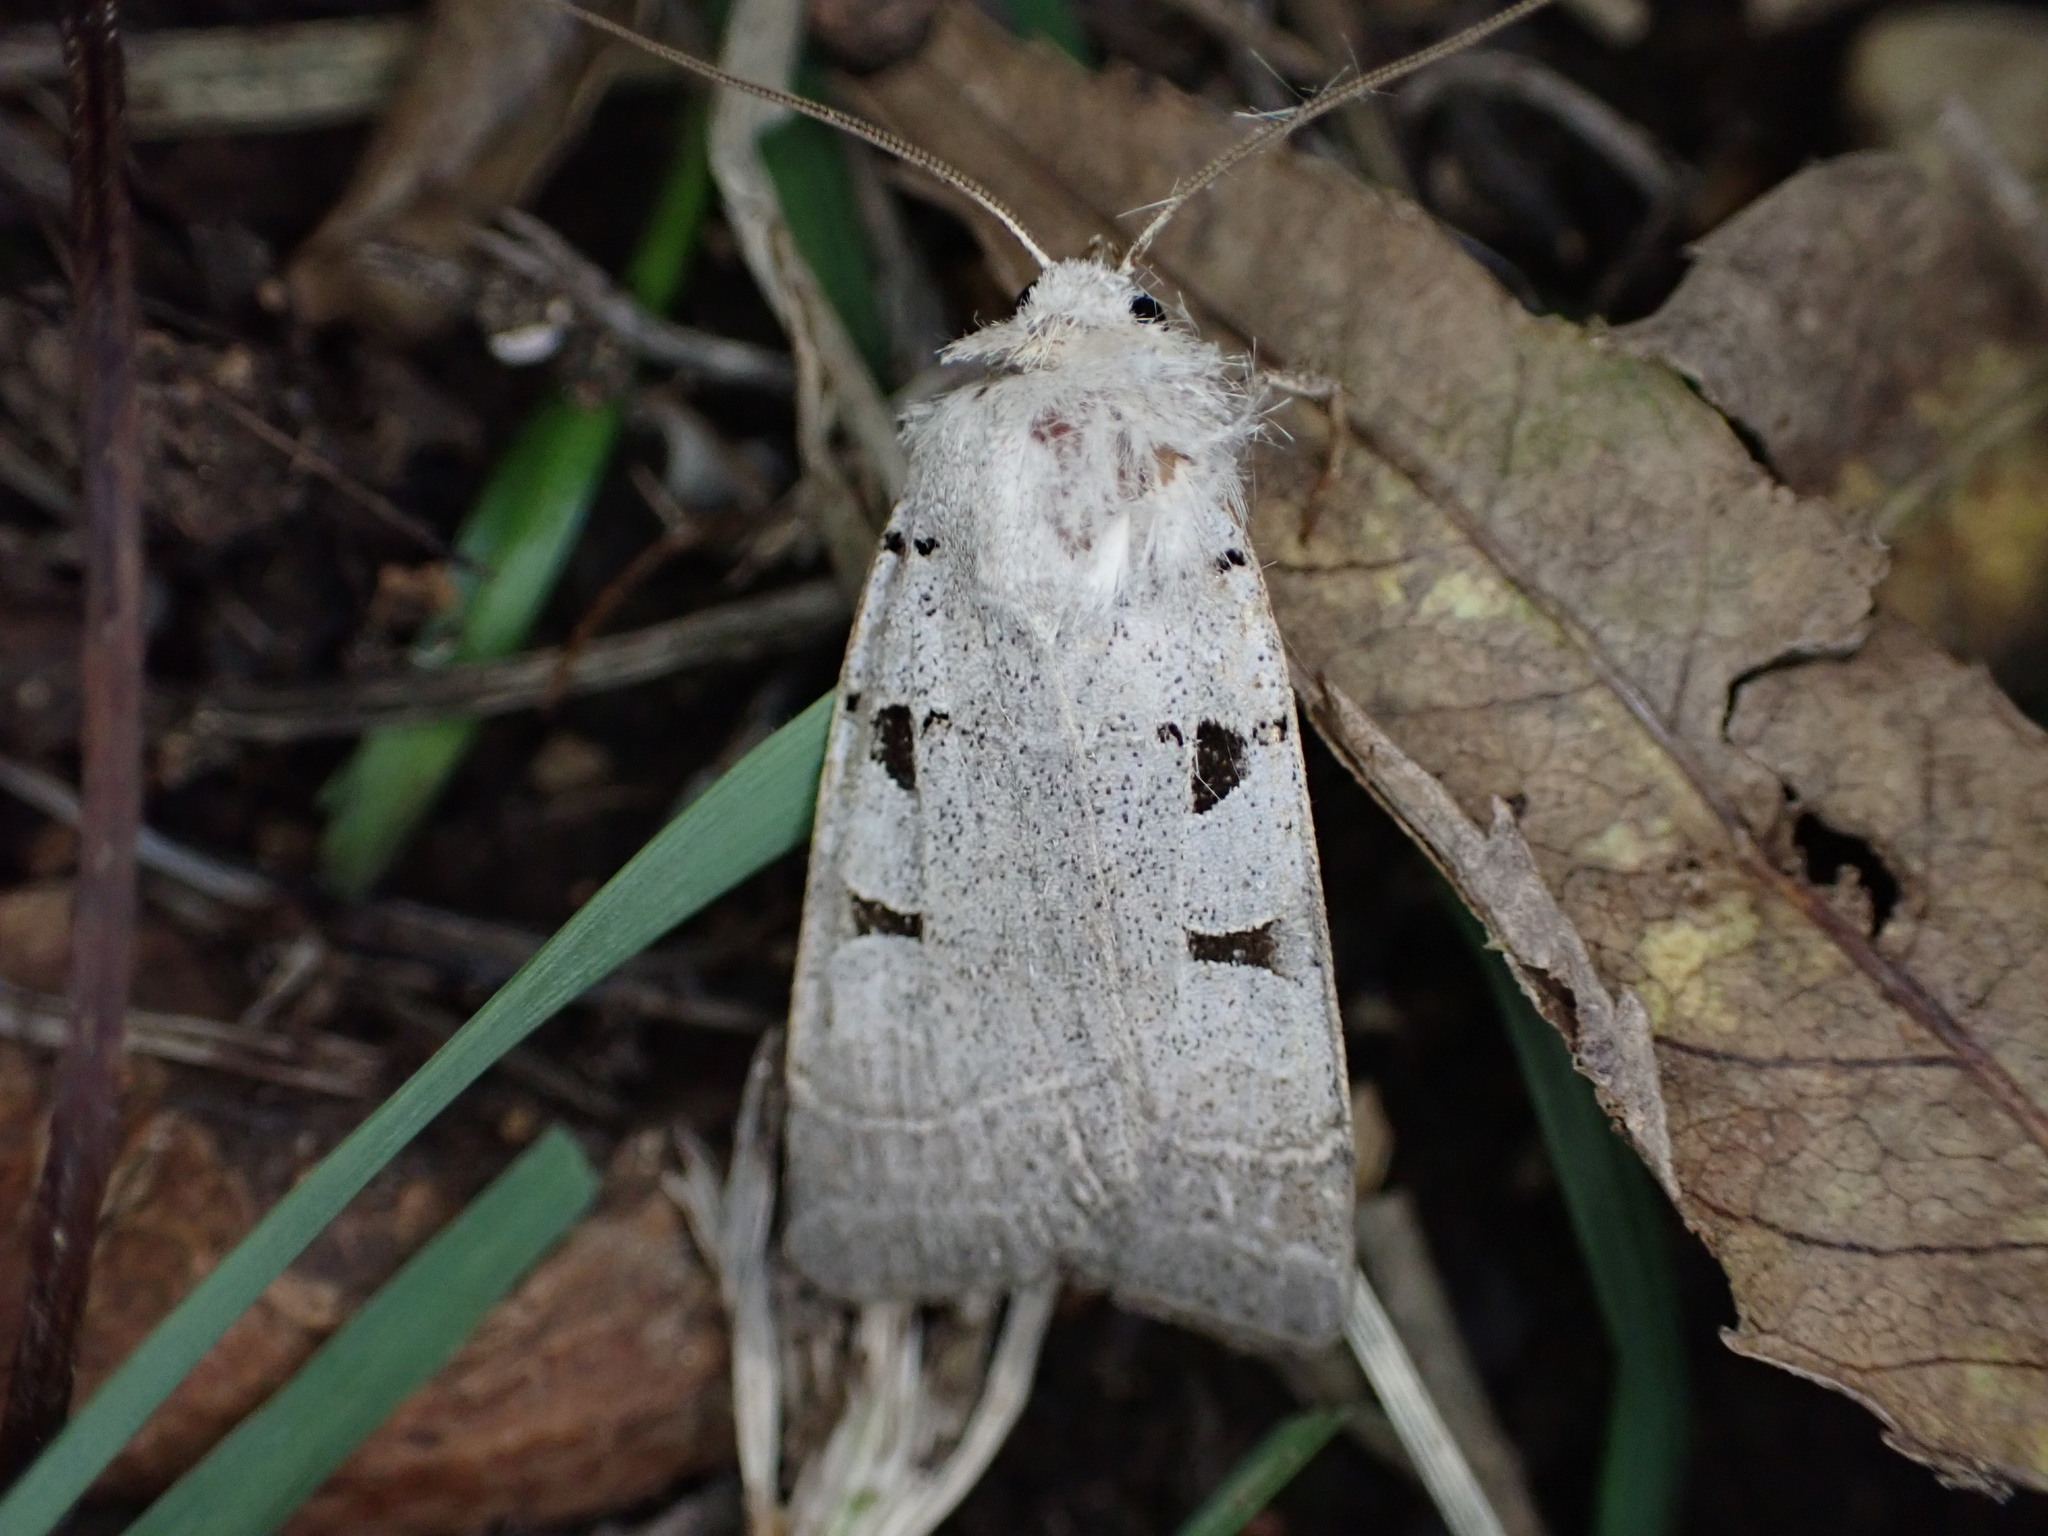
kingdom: Animalia
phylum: Arthropoda
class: Insecta
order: Lepidoptera
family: Noctuidae
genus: Eugnorisma
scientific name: Eugnorisma glareosa
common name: Autumnal rustic
